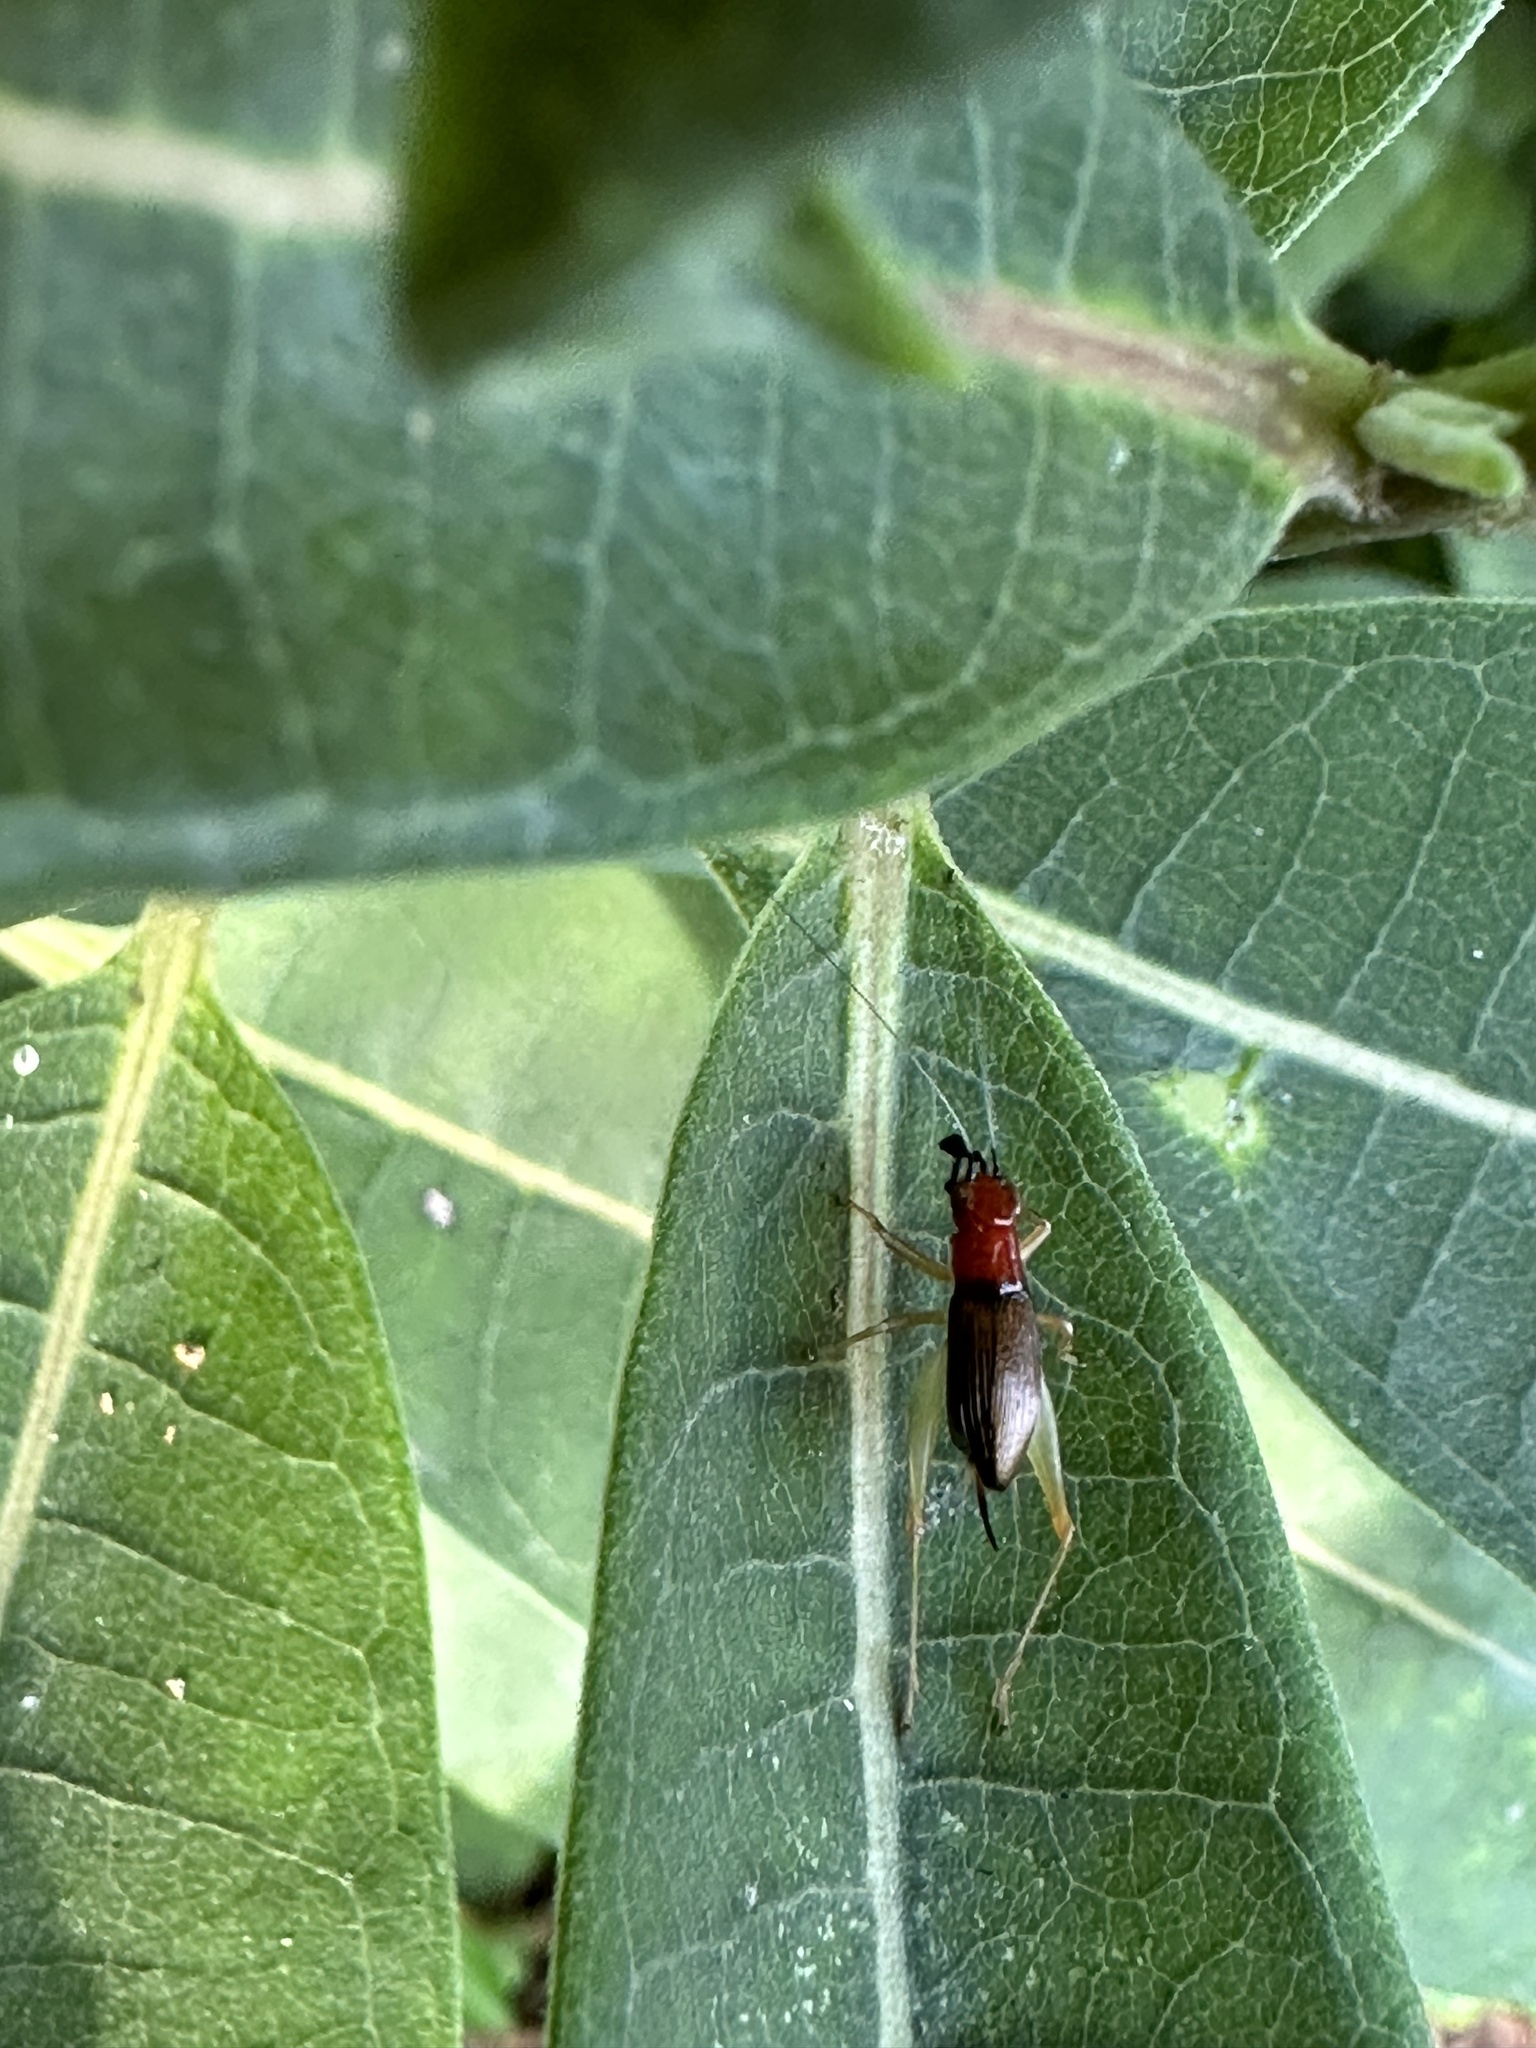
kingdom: Animalia
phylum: Arthropoda
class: Insecta
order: Orthoptera
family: Trigonidiidae
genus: Phyllopalpus
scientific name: Phyllopalpus pulchellus
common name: Handsome trig
